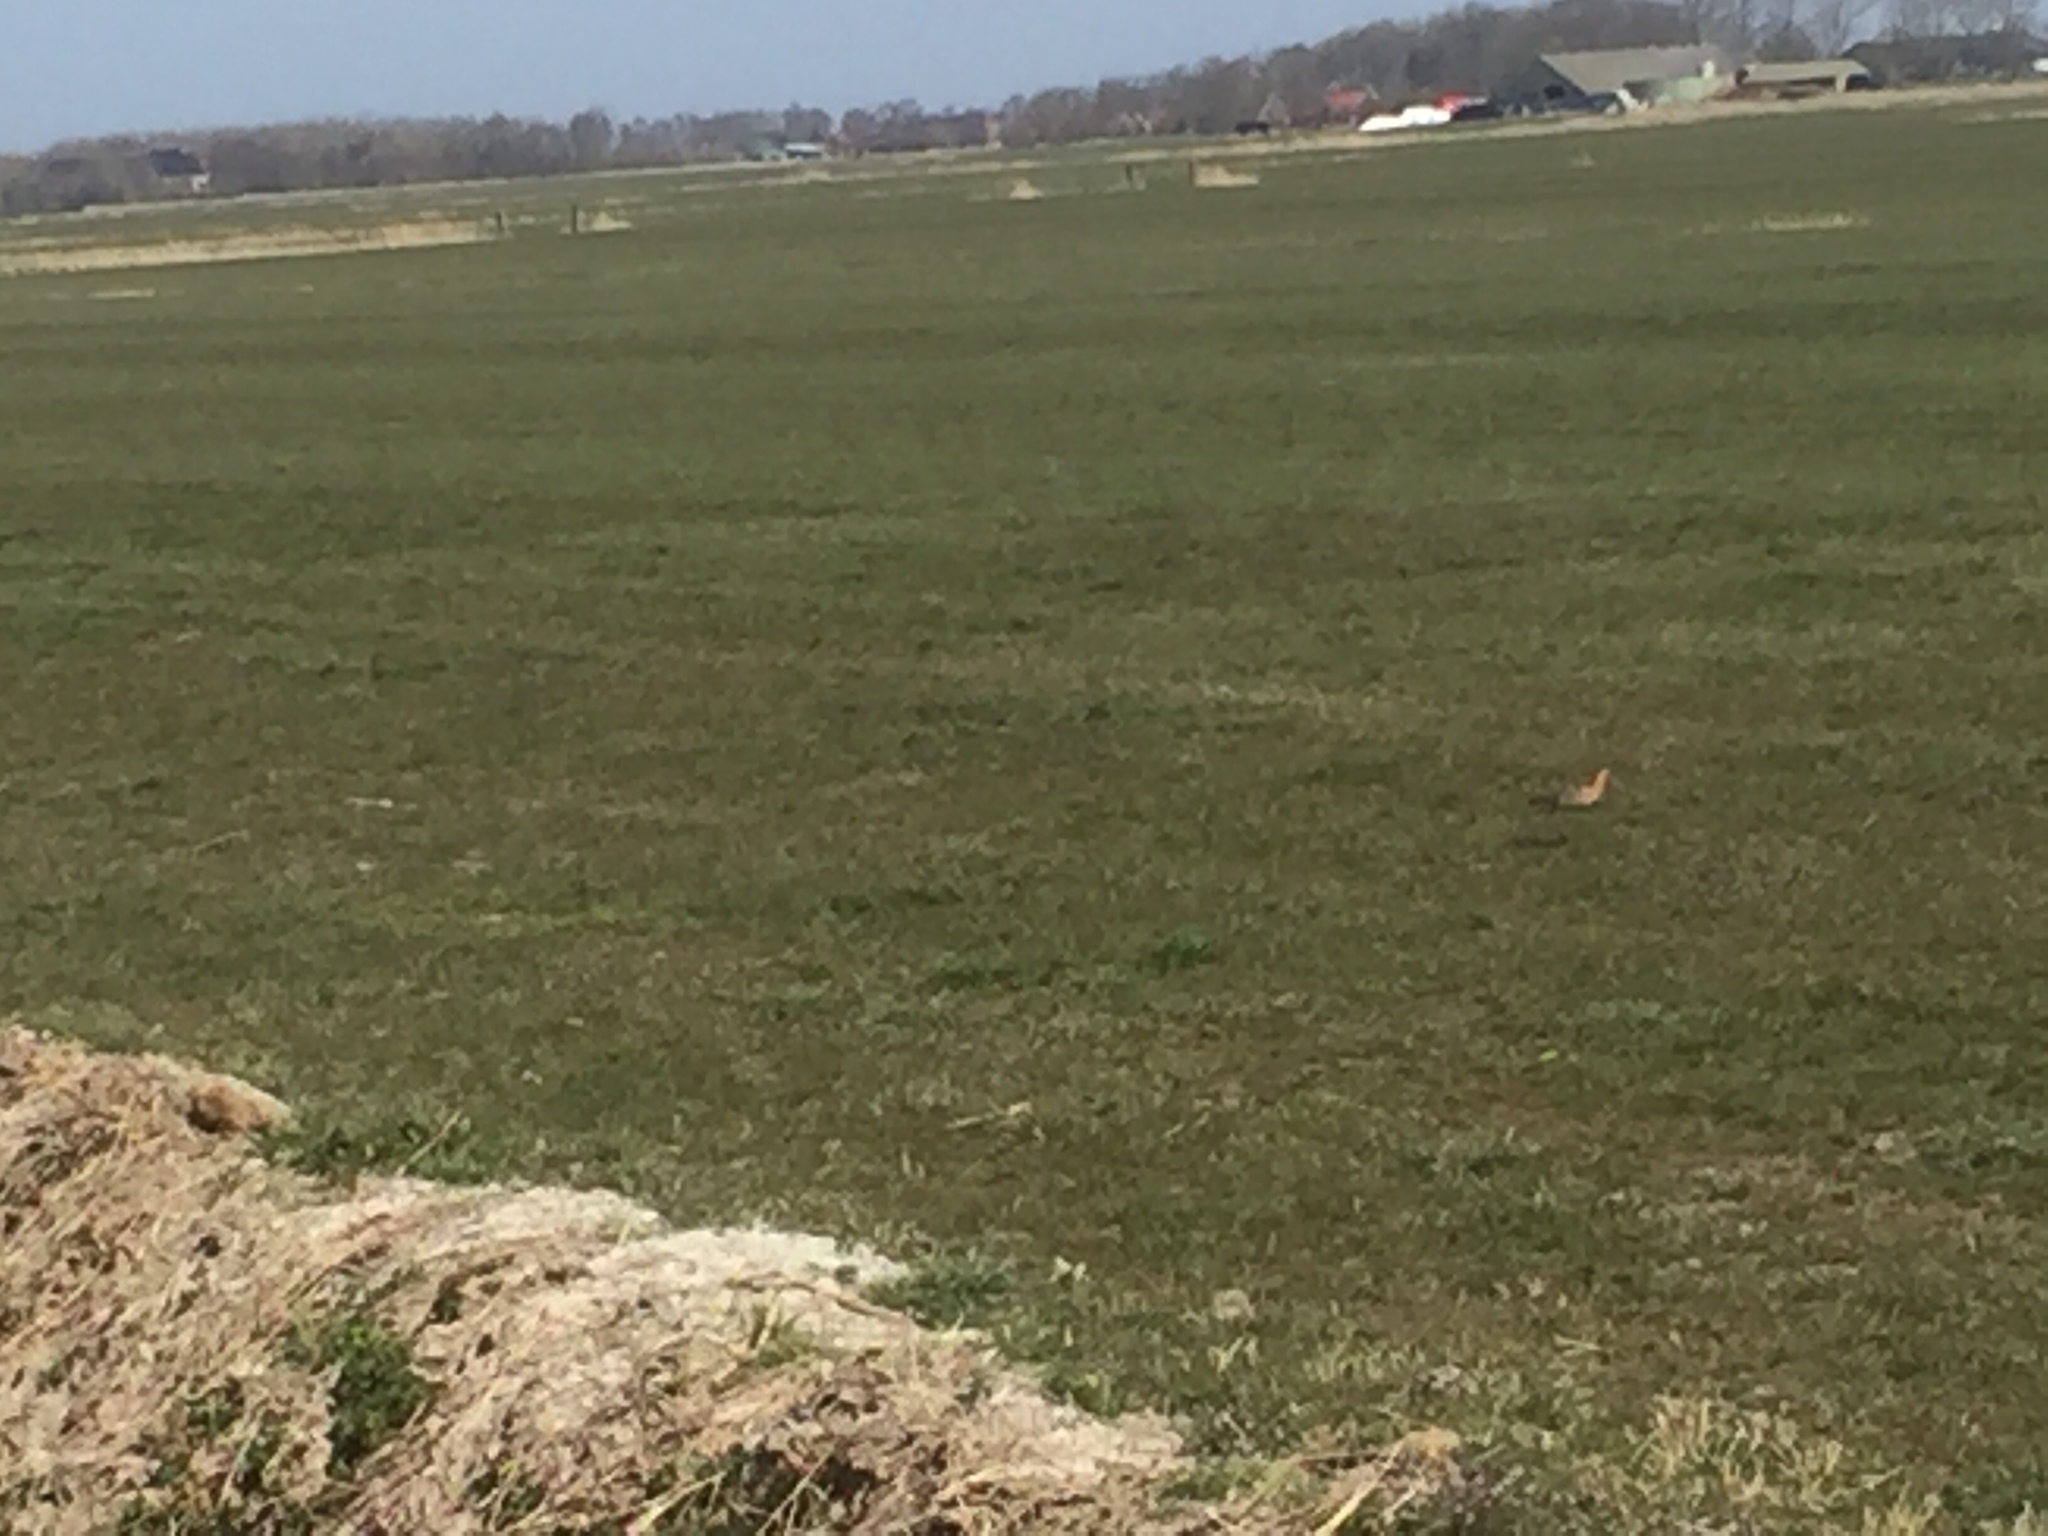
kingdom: Animalia
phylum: Chordata
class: Aves
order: Charadriiformes
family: Scolopacidae
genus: Limosa
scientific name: Limosa limosa
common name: Black-tailed godwit
